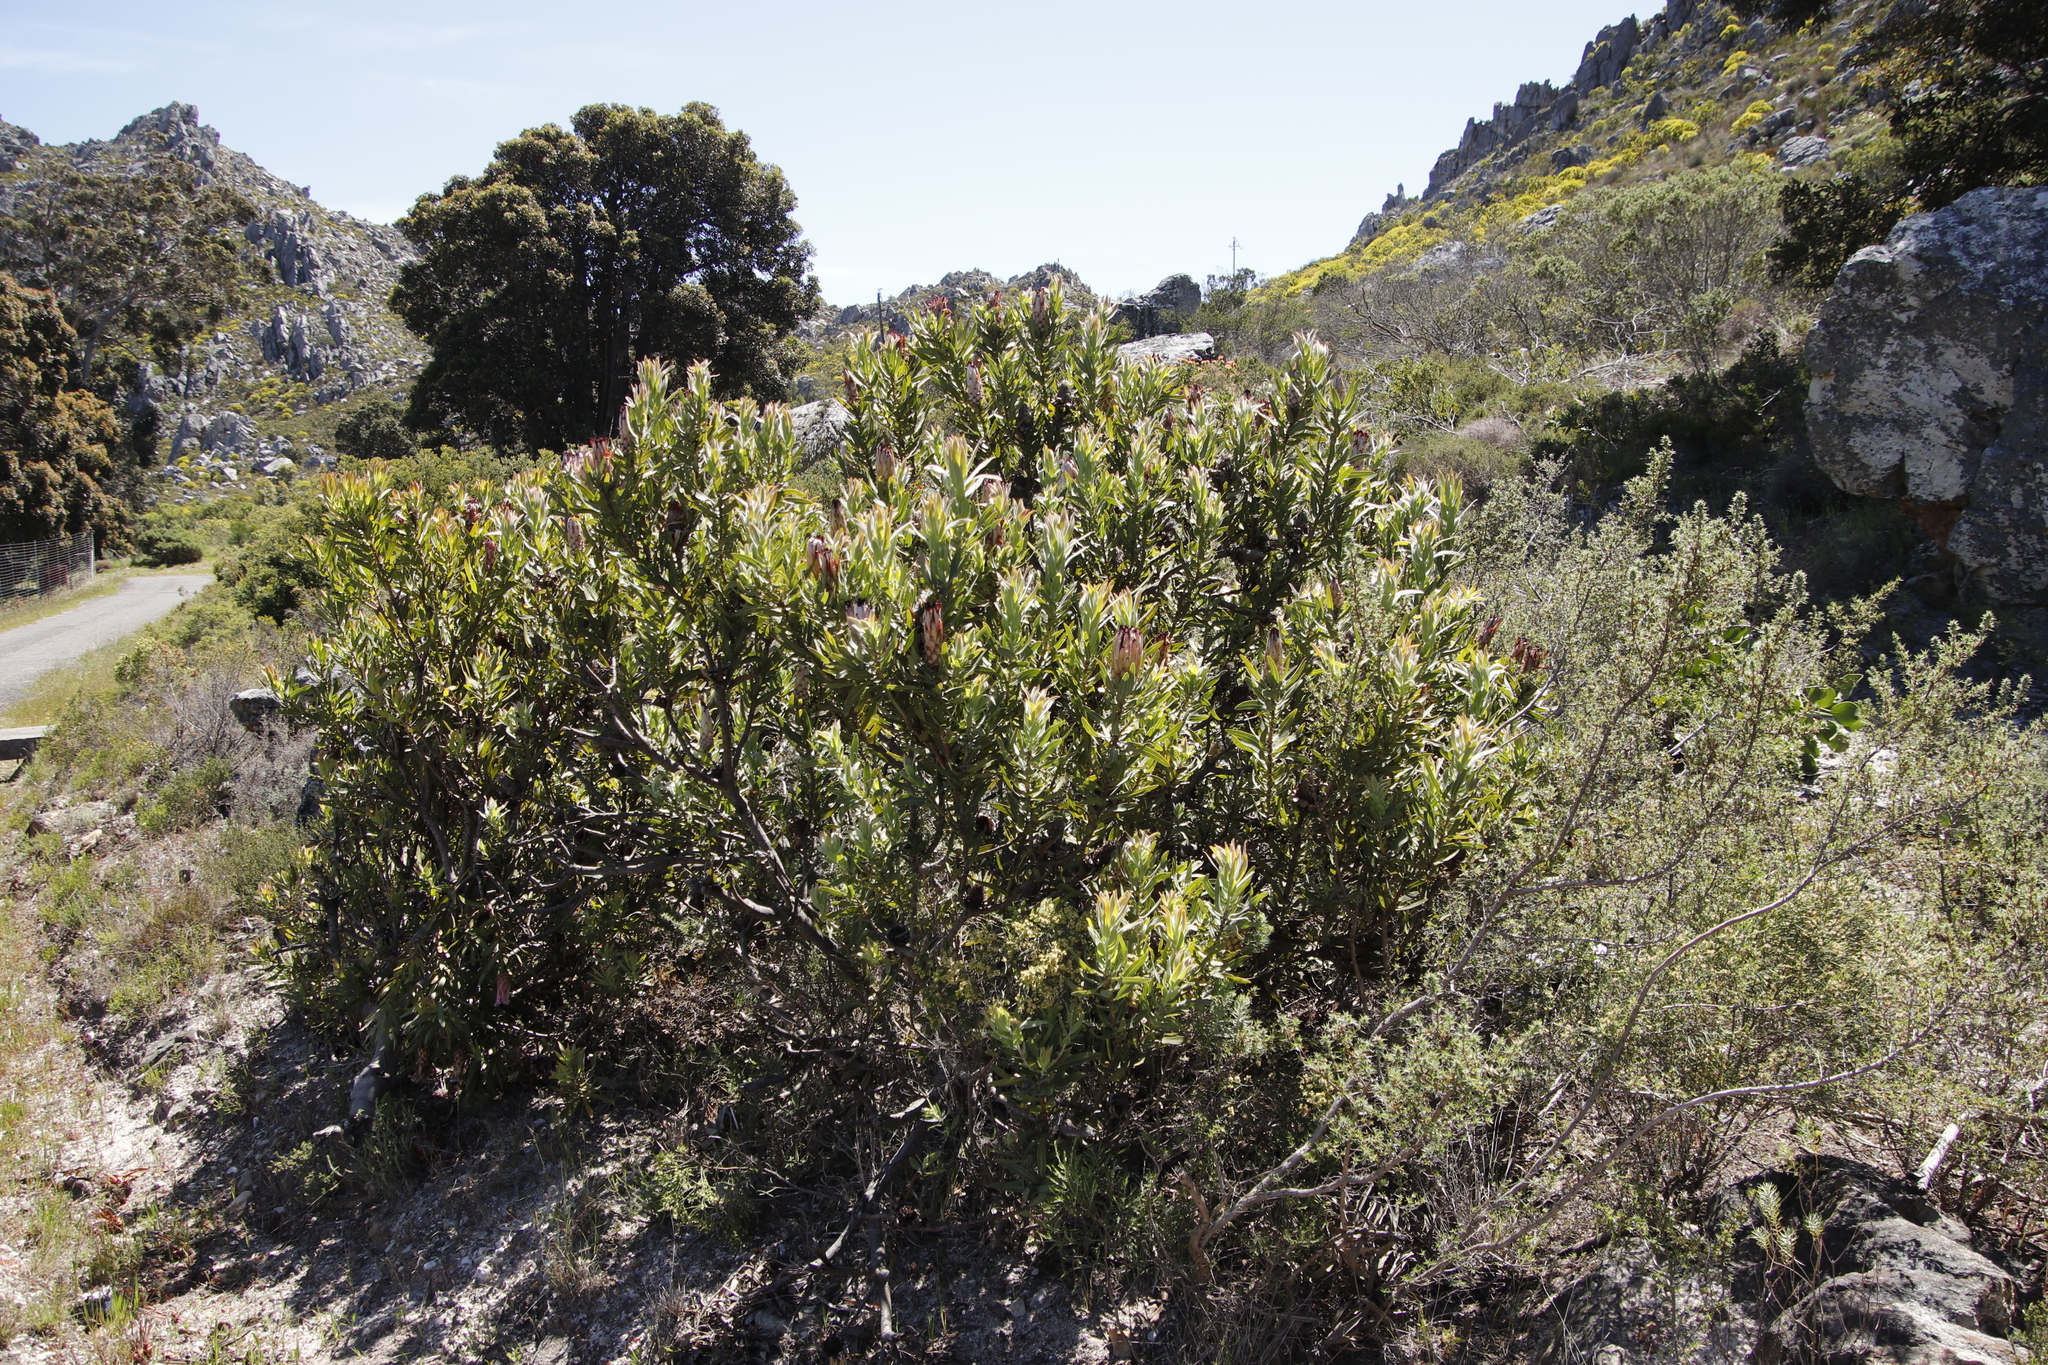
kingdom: Plantae
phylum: Tracheophyta
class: Magnoliopsida
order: Proteales
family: Proteaceae
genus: Protea
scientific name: Protea neriifolia
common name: Blue sugarbush
